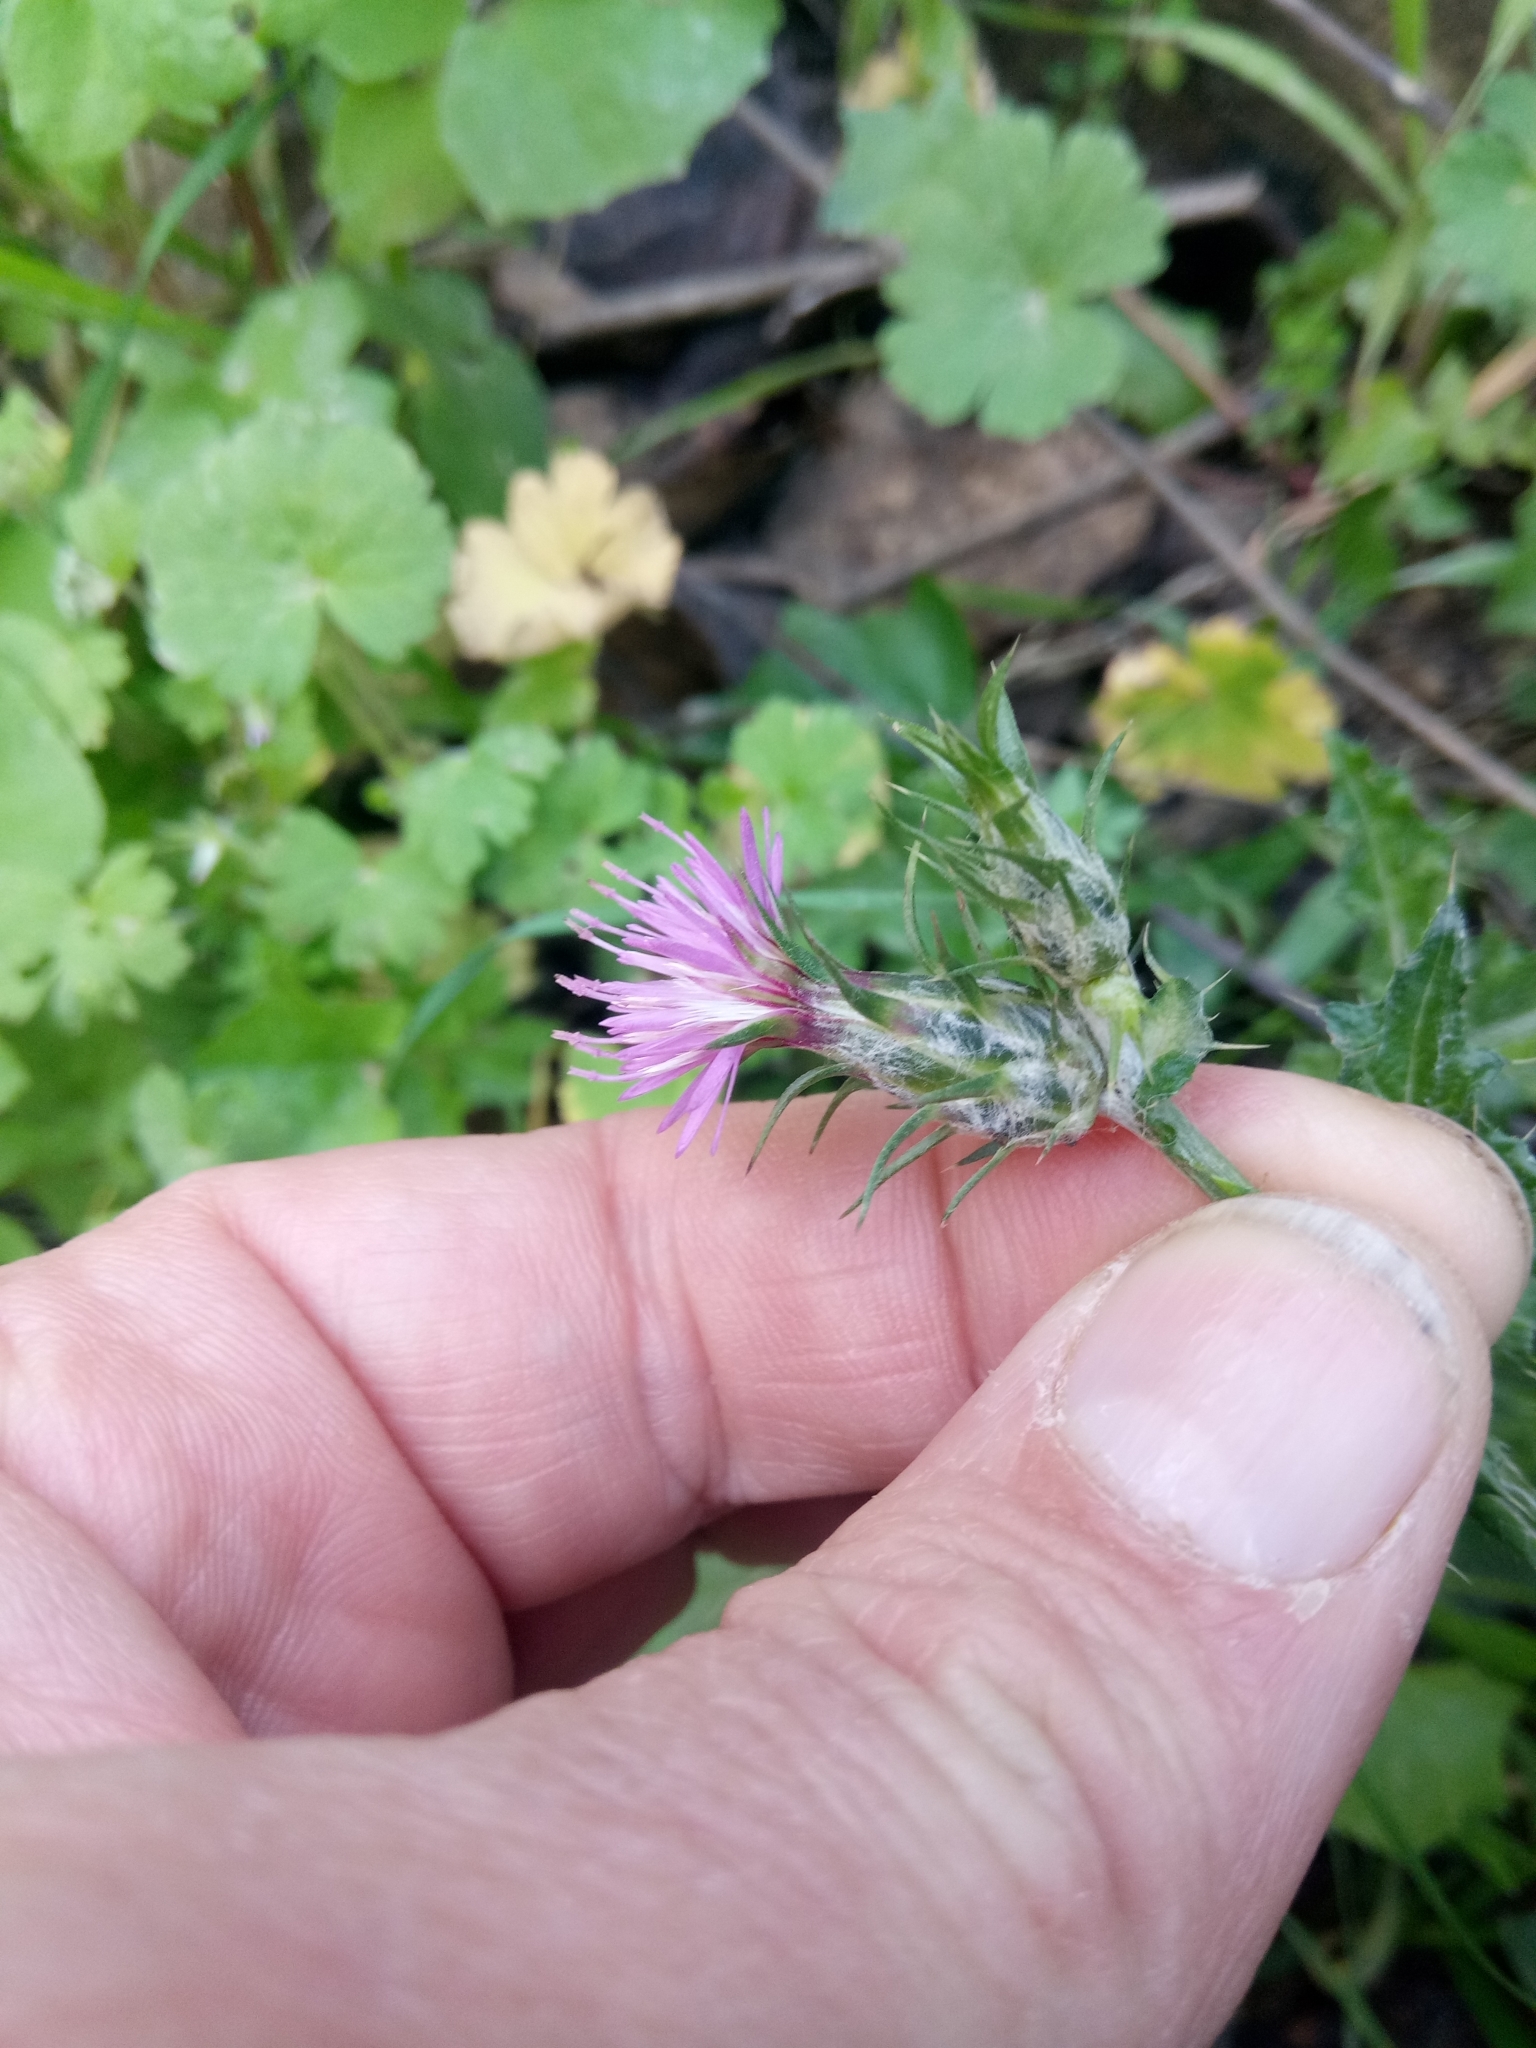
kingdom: Plantae
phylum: Tracheophyta
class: Magnoliopsida
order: Asterales
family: Asteraceae
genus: Carduus
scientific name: Carduus pycnocephalus
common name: Plymouth thistle
